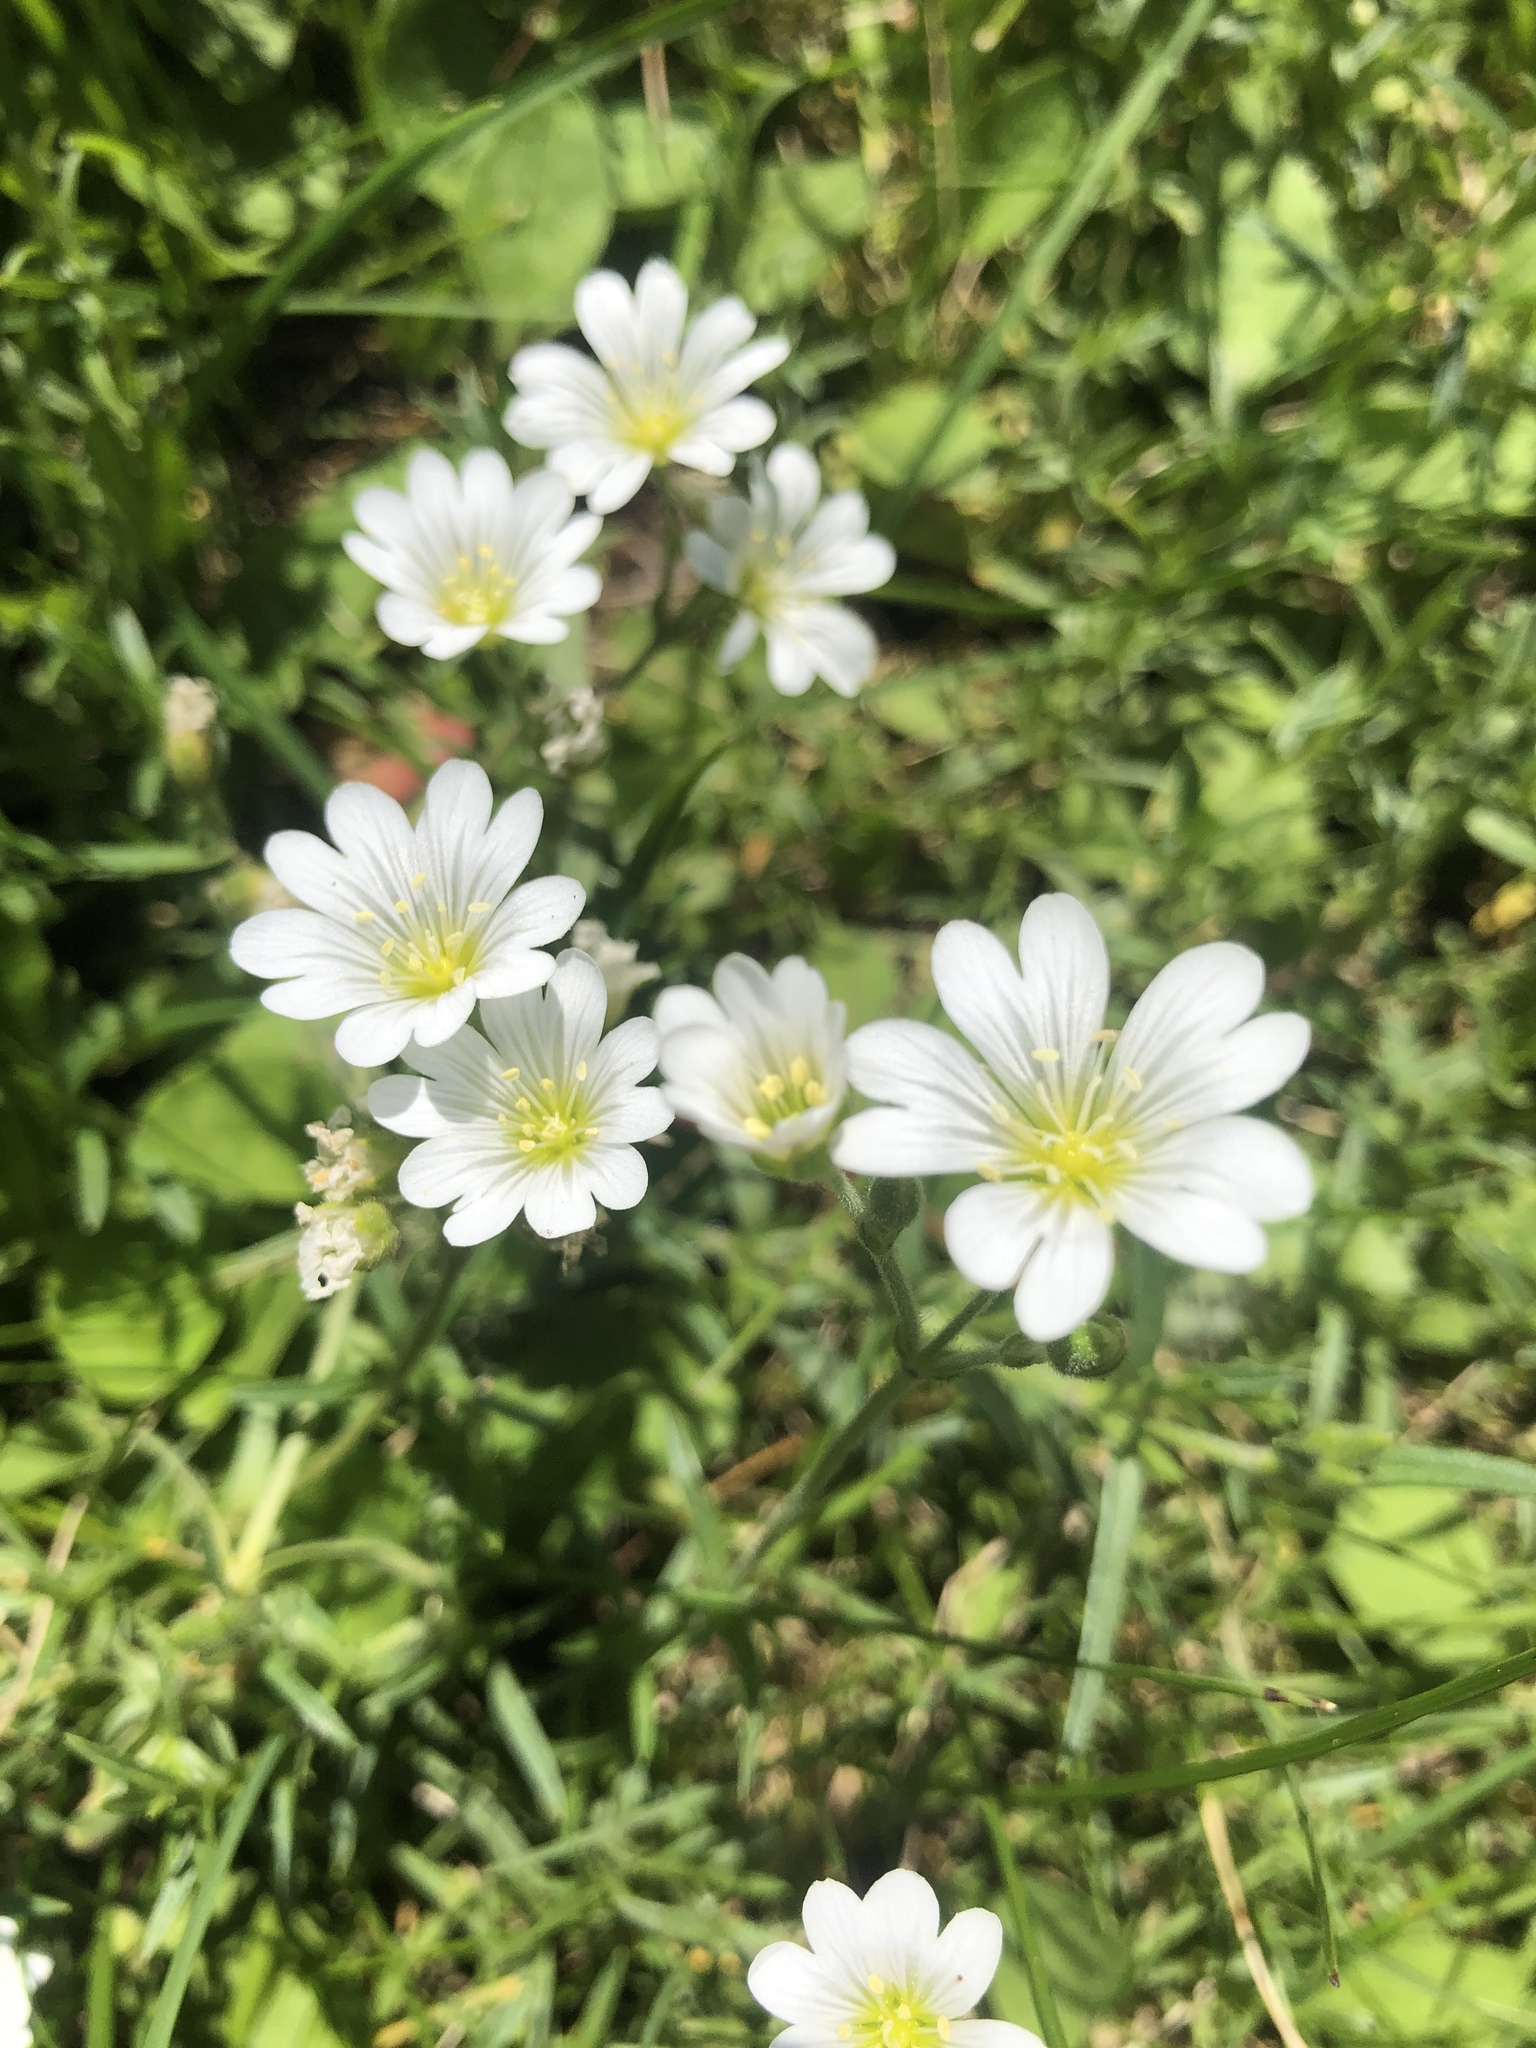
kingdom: Plantae
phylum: Tracheophyta
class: Magnoliopsida
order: Caryophyllales
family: Caryophyllaceae
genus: Cerastium
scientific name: Cerastium arvense
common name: Field mouse-ear
